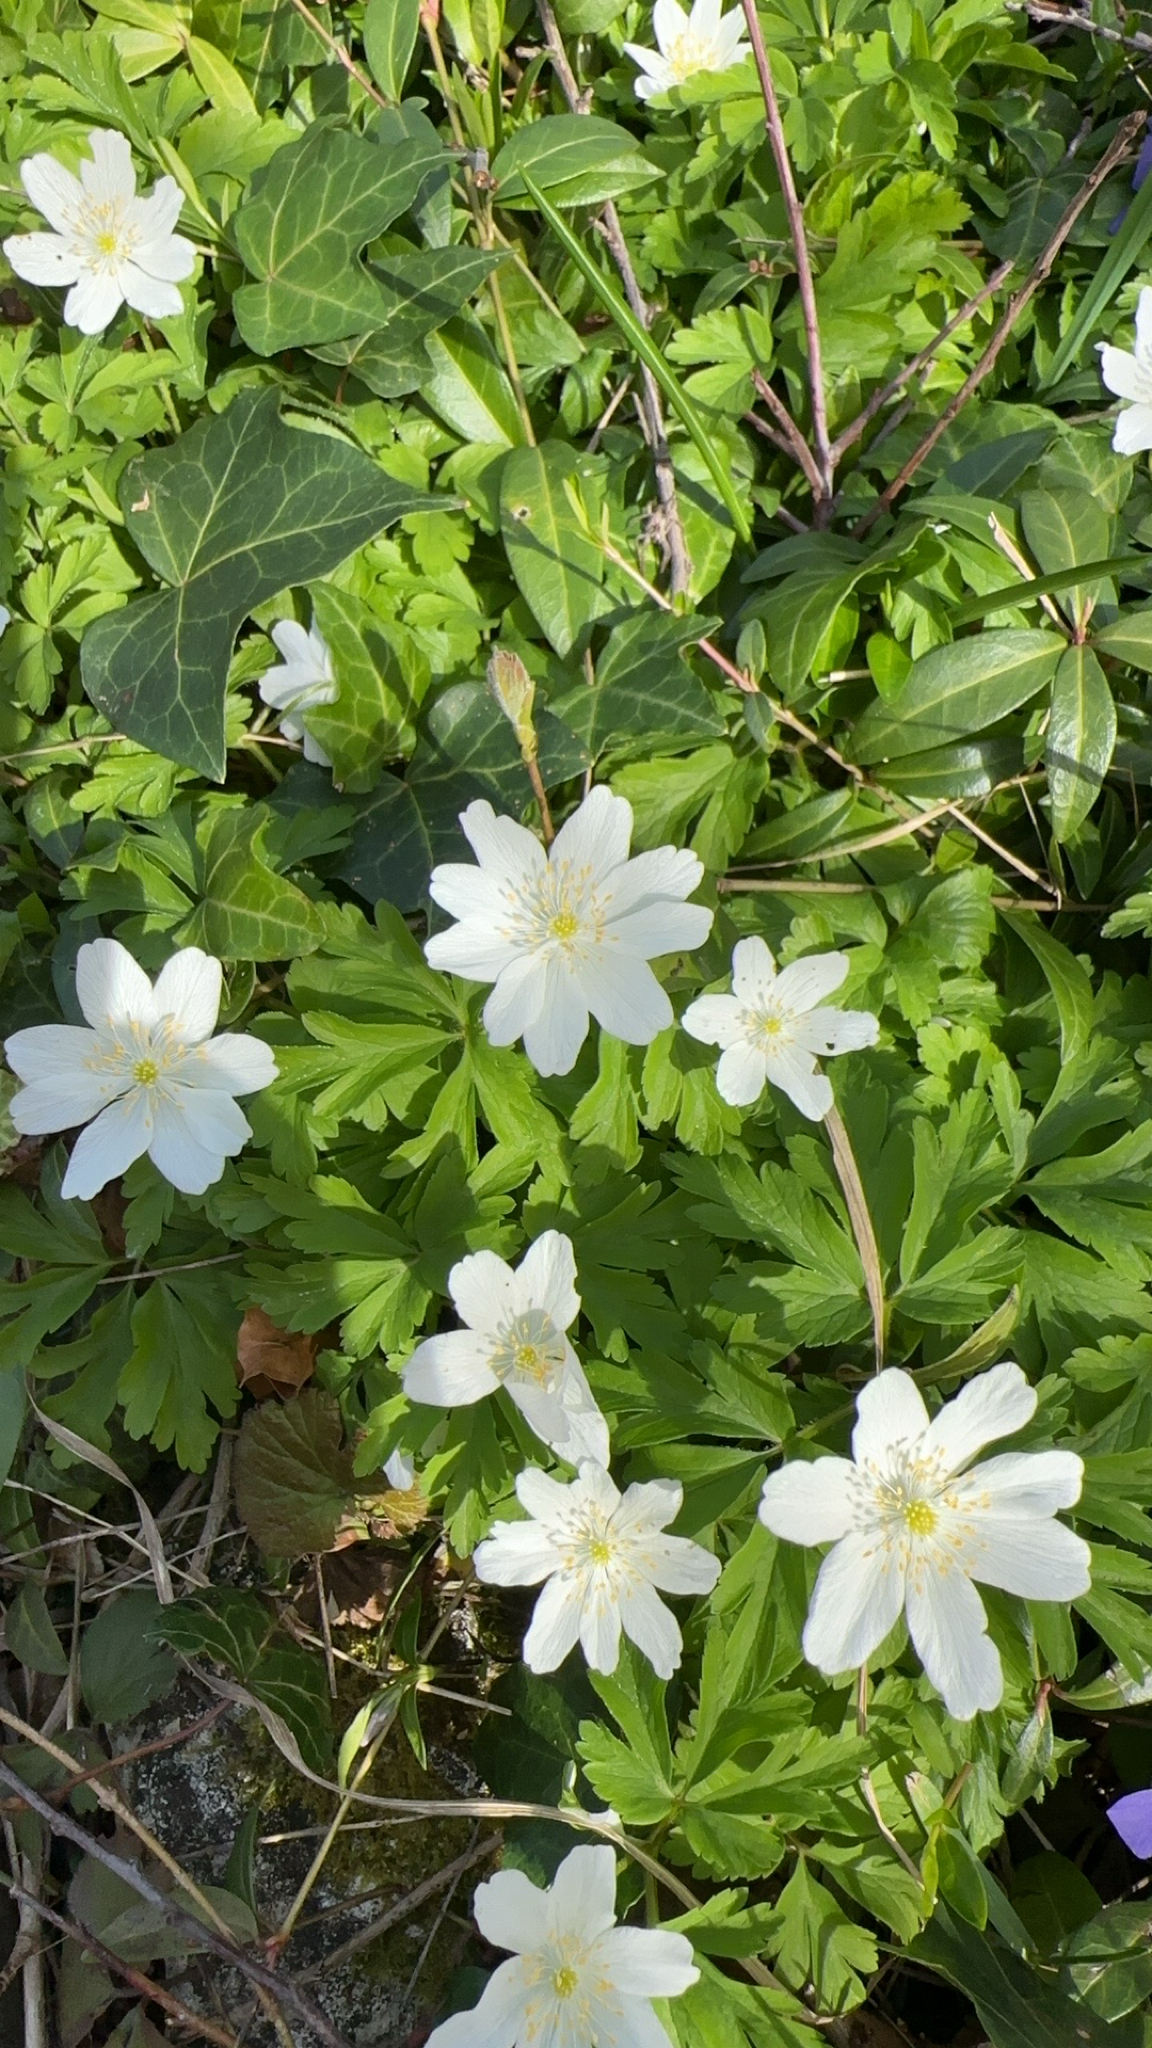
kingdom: Plantae
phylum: Tracheophyta
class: Magnoliopsida
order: Ranunculales
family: Ranunculaceae
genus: Anemone
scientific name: Anemone nemorosa
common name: Wood anemone
